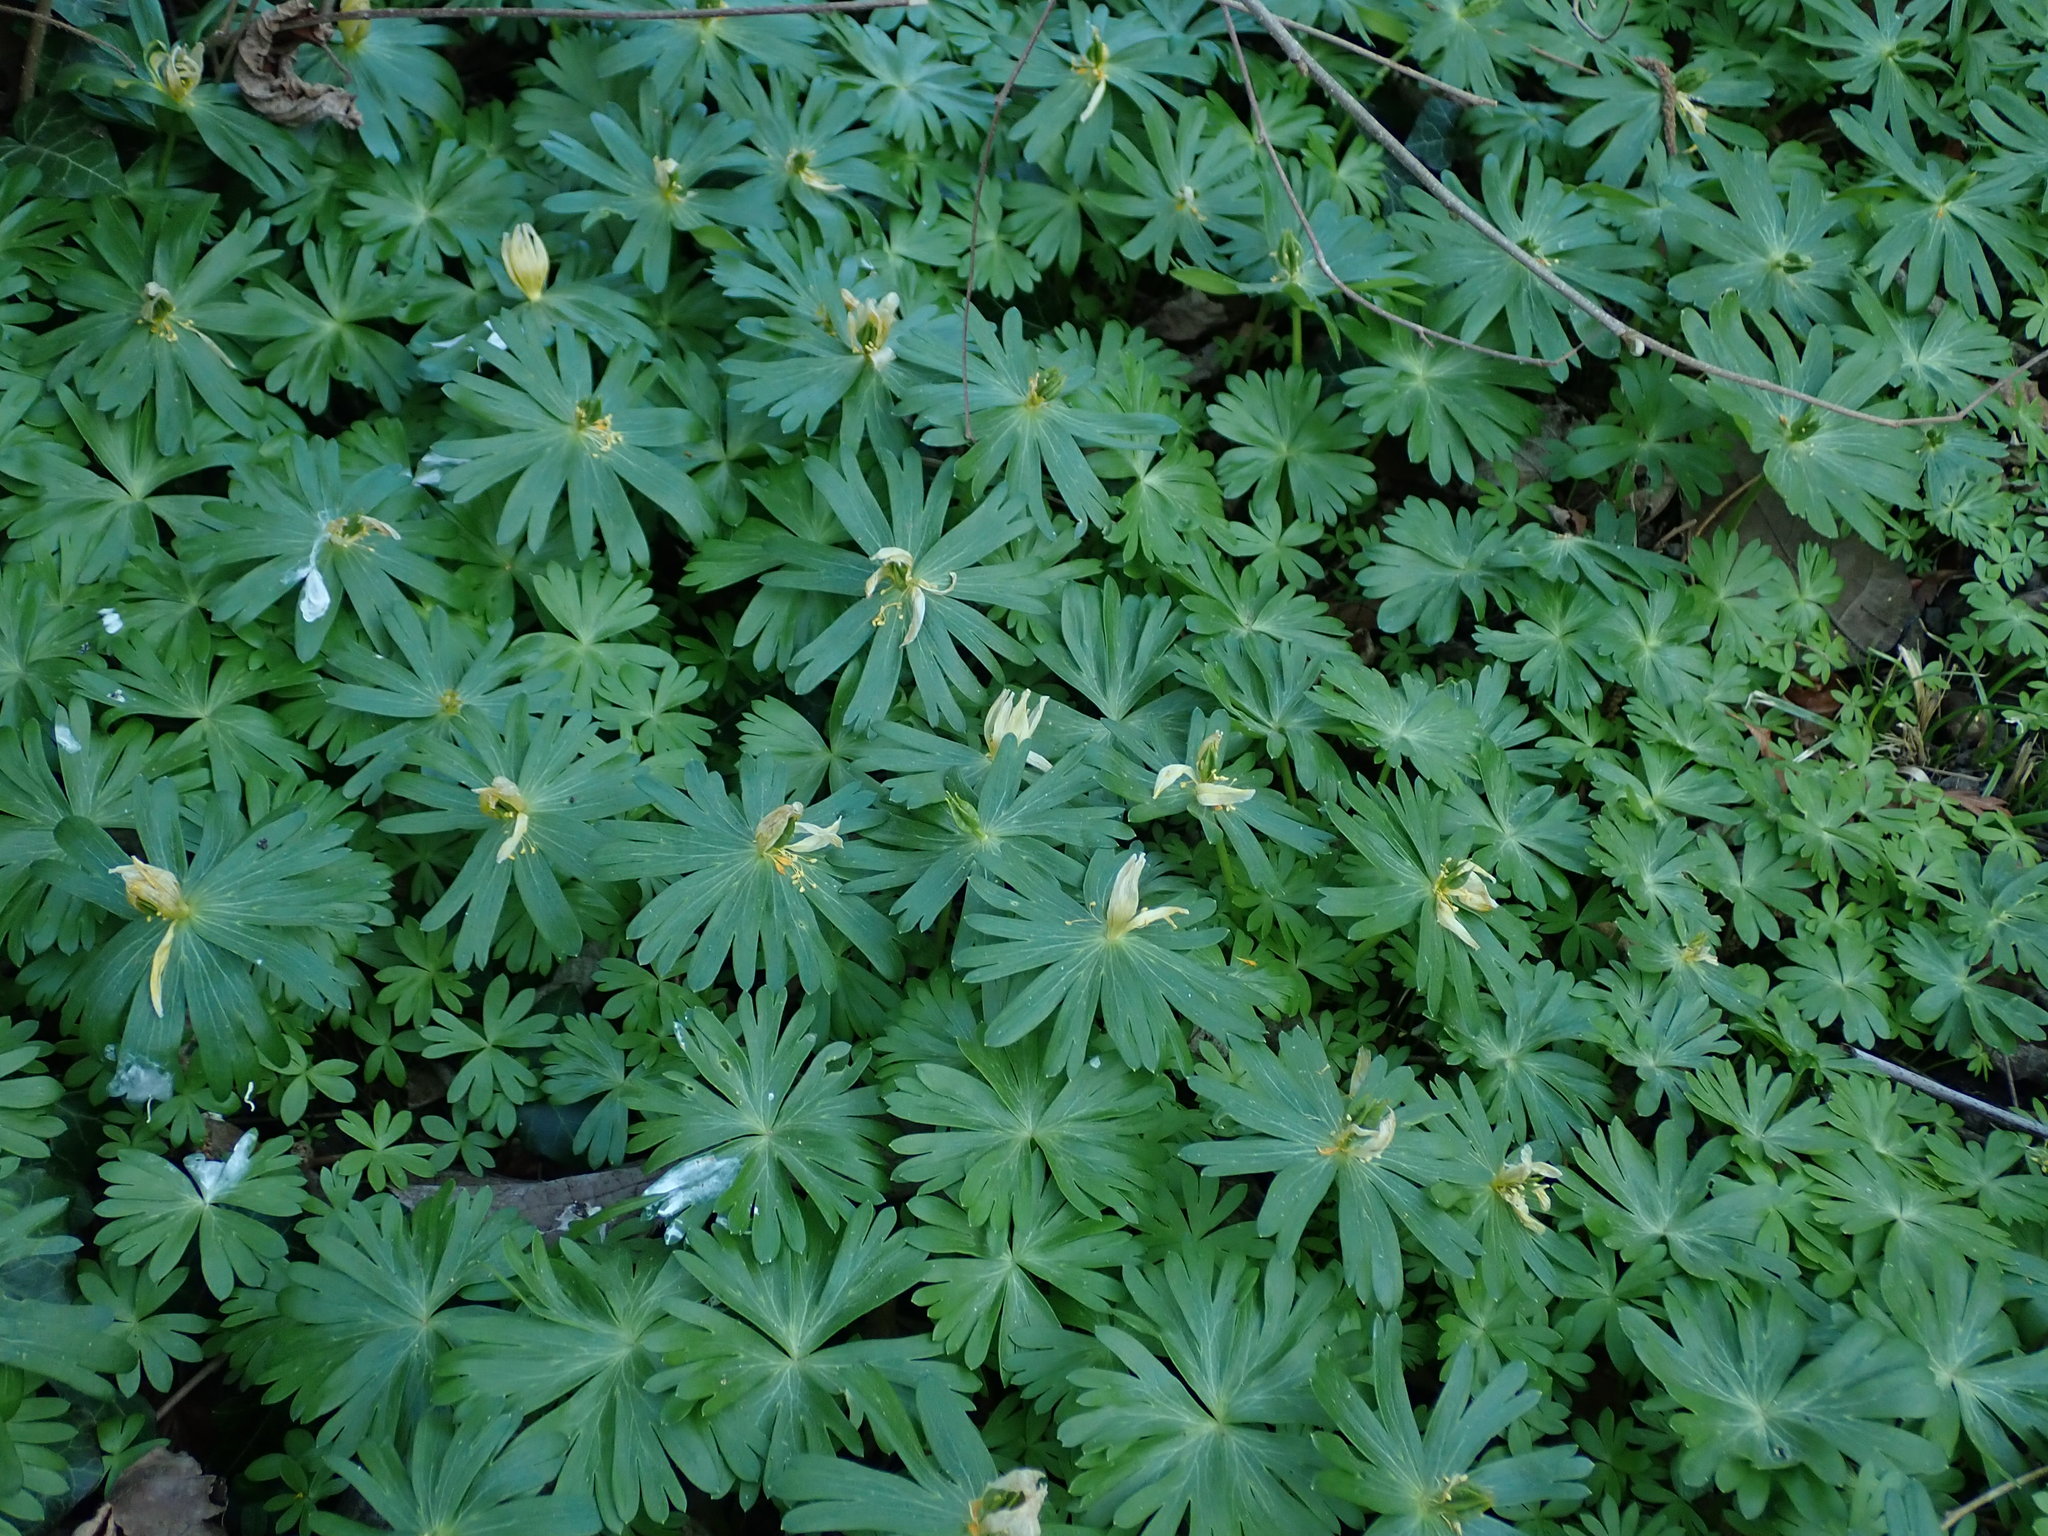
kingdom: Plantae
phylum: Tracheophyta
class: Magnoliopsida
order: Ranunculales
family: Ranunculaceae
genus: Eranthis
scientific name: Eranthis hyemalis
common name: Winter aconite
